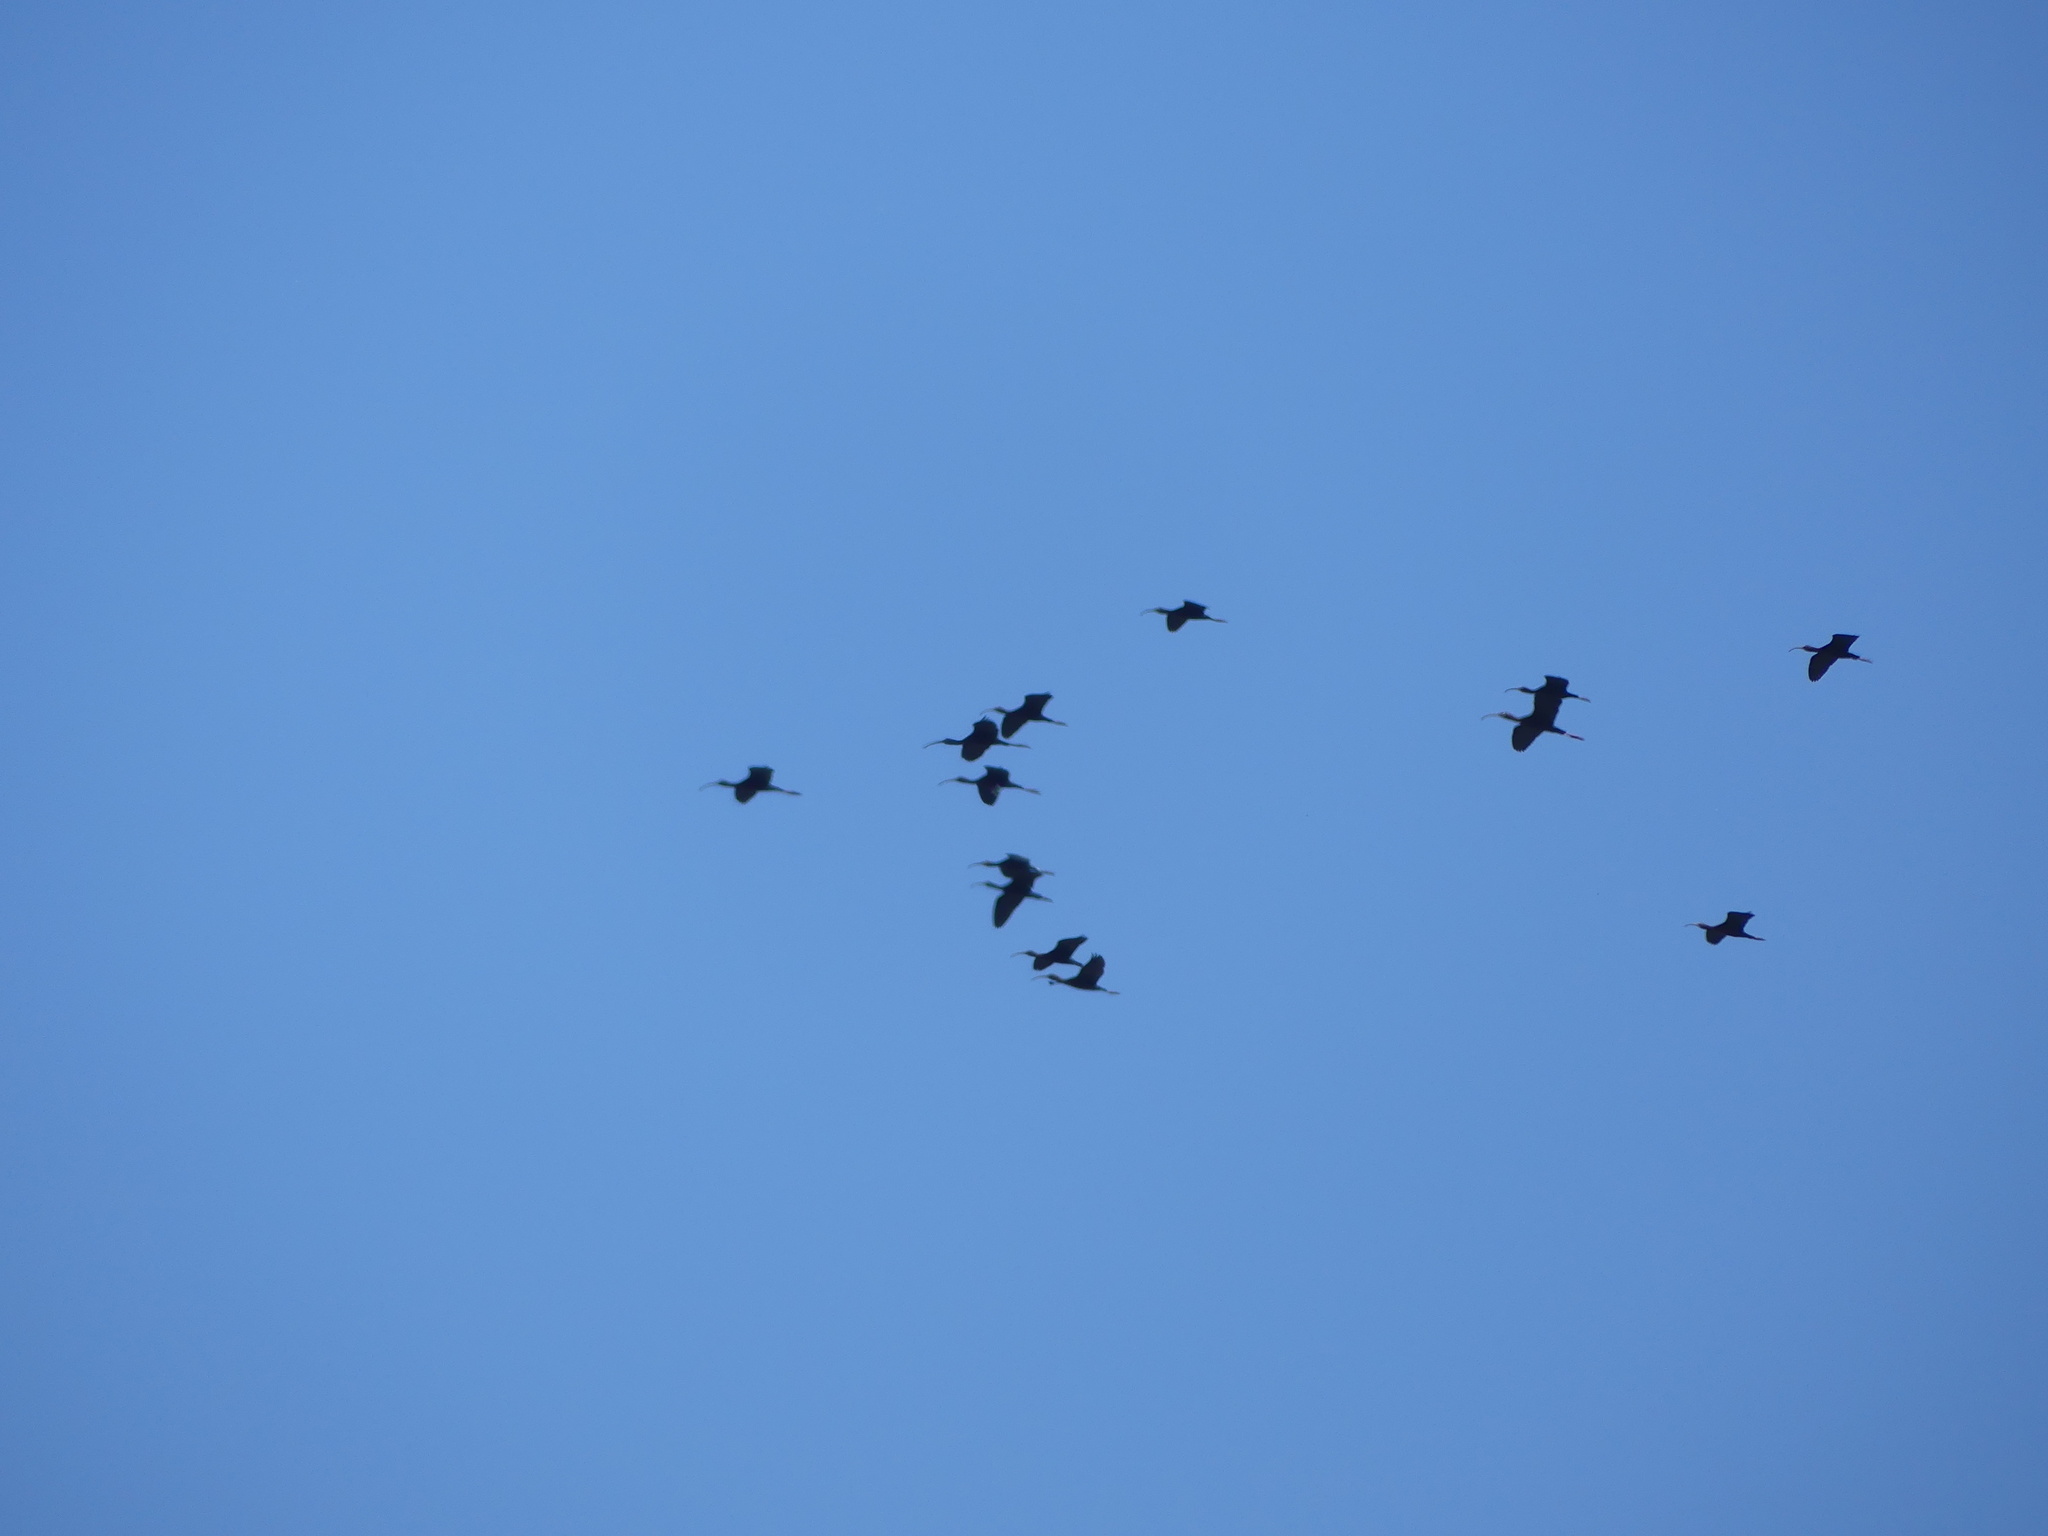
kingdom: Animalia
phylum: Chordata
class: Aves
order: Pelecaniformes
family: Threskiornithidae
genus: Plegadis
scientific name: Plegadis chihi
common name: White-faced ibis
